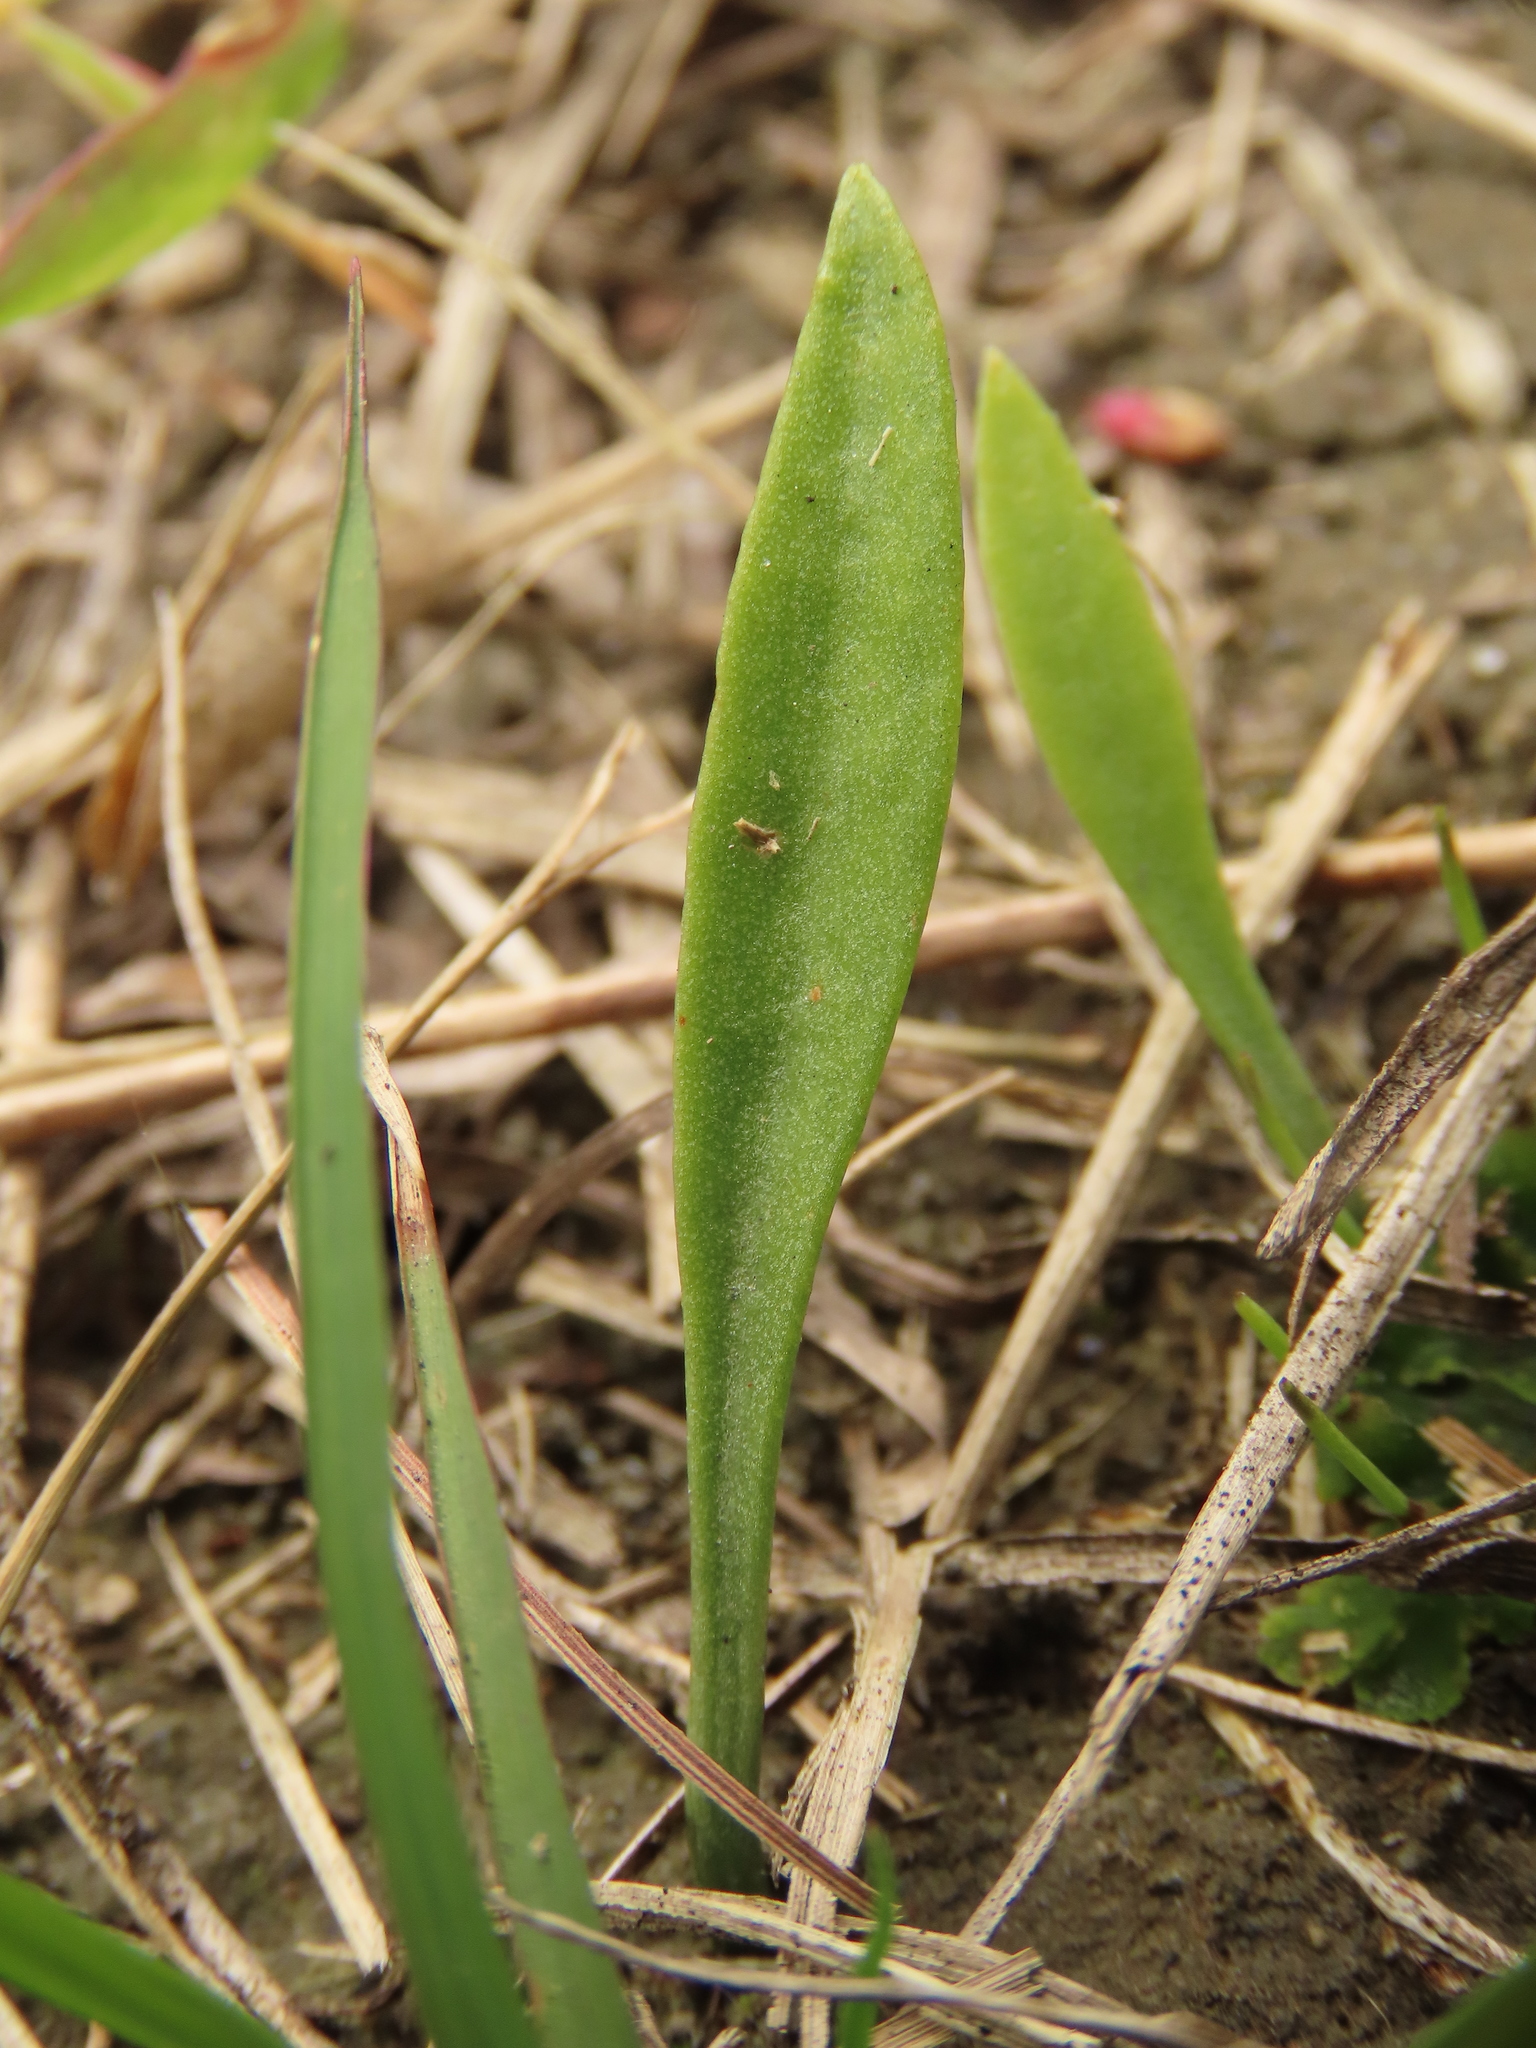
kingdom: Plantae
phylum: Tracheophyta
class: Polypodiopsida
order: Ophioglossales
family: Ophioglossaceae
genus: Ophioglossum
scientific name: Ophioglossum thermale
